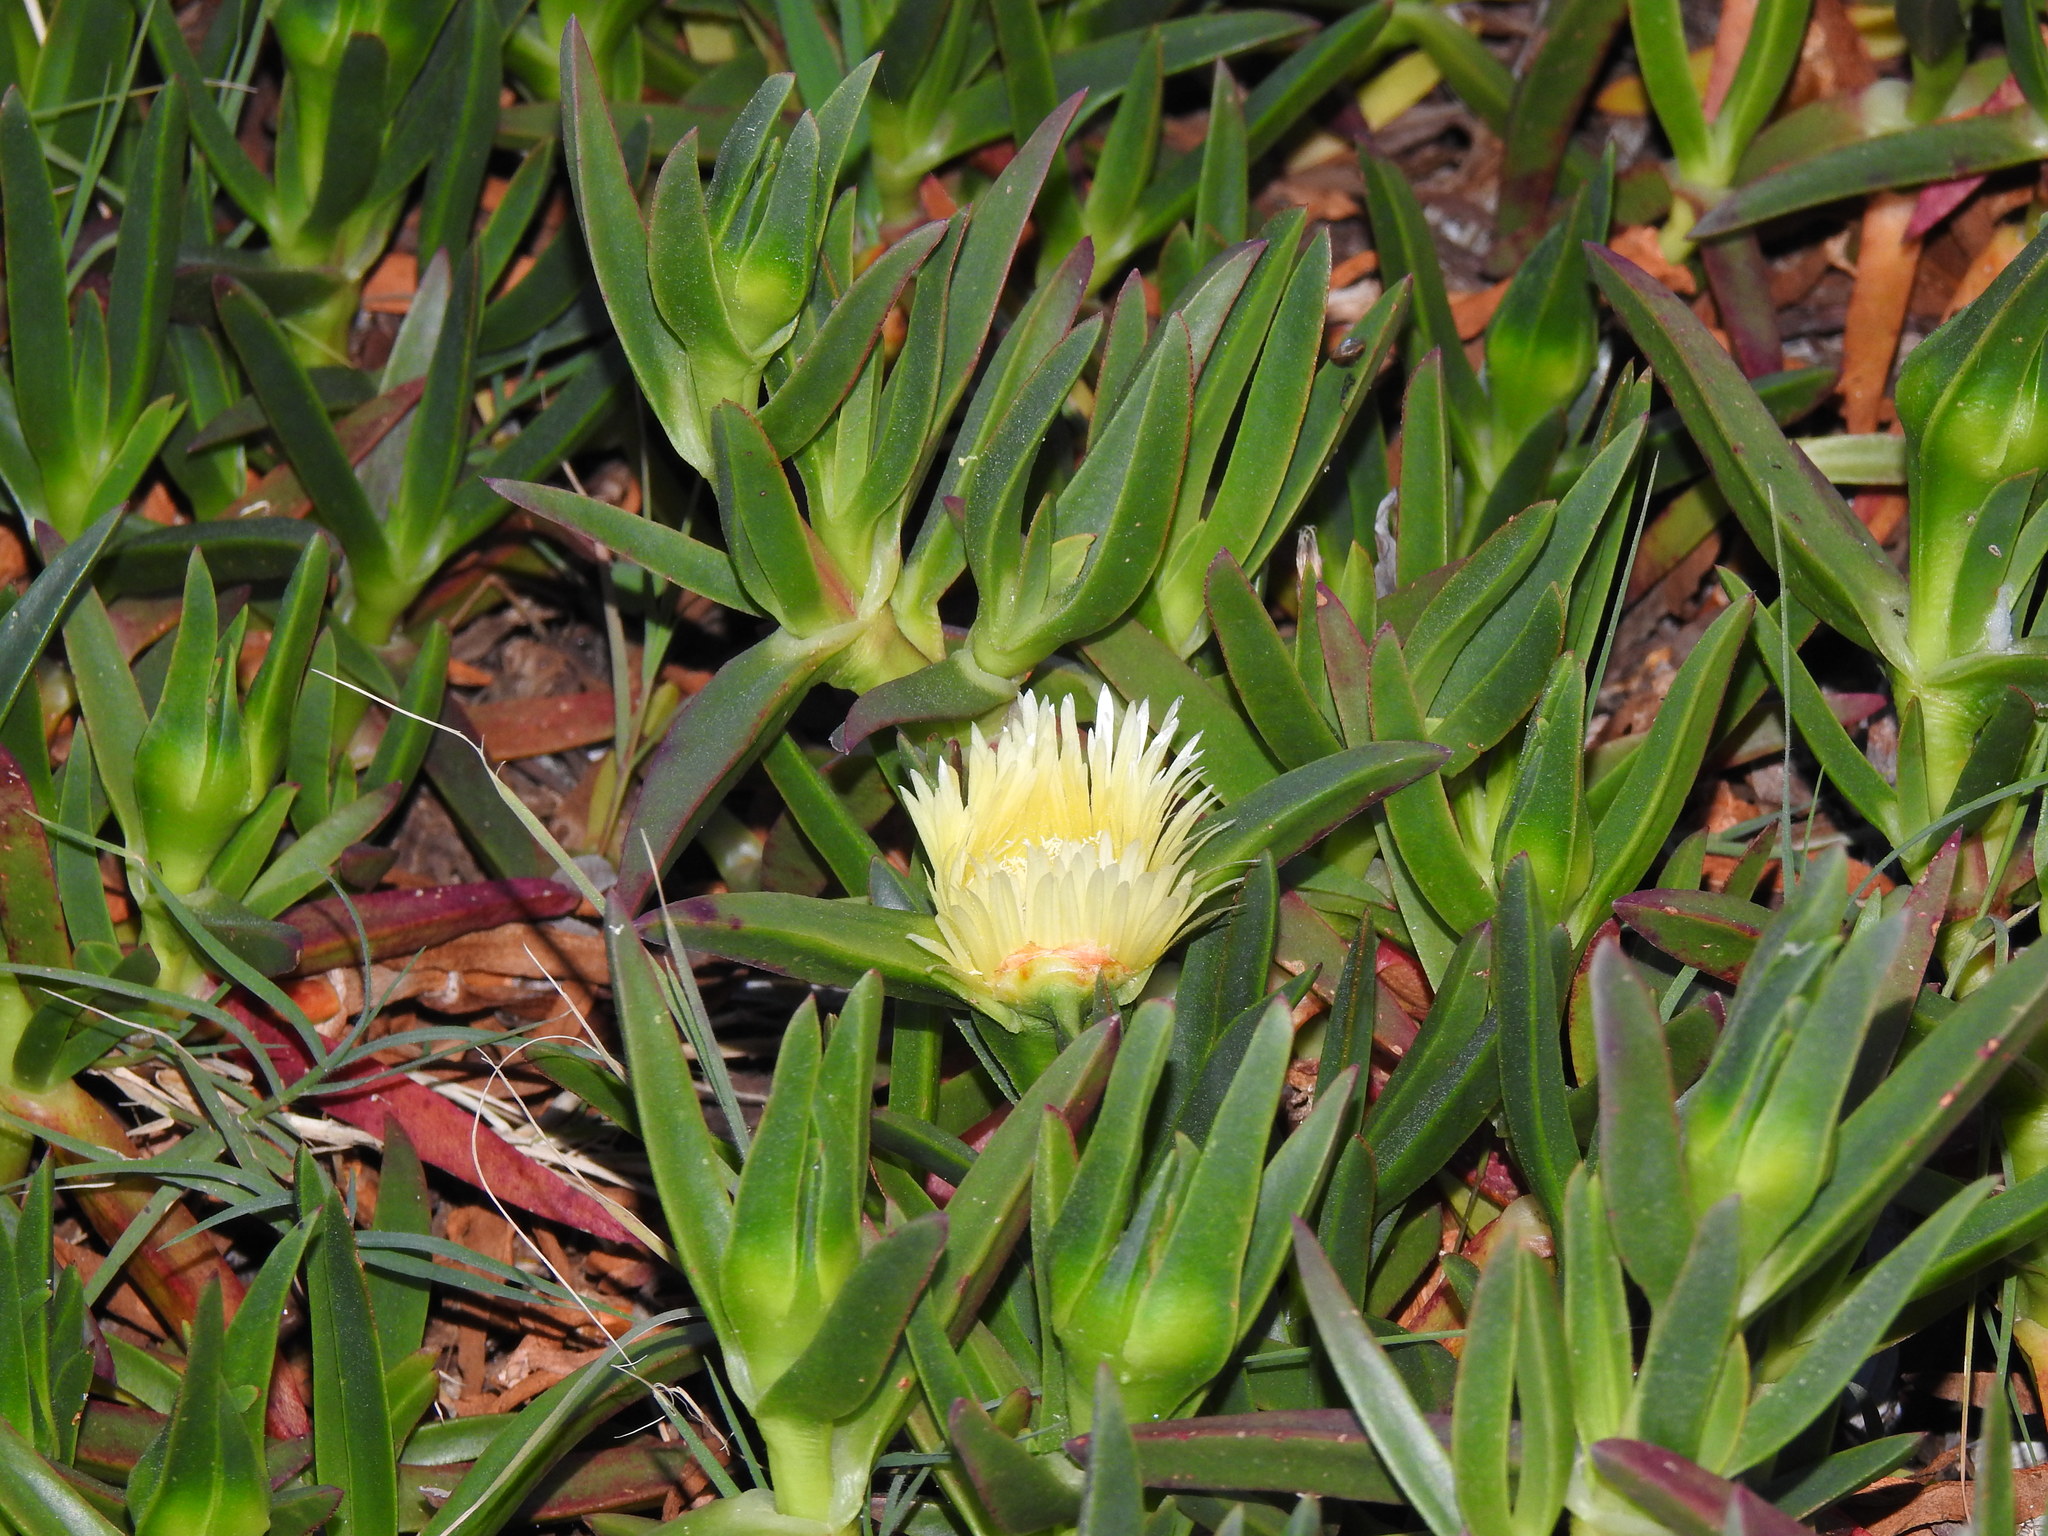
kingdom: Plantae
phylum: Tracheophyta
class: Magnoliopsida
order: Caryophyllales
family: Aizoaceae
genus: Carpobrotus
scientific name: Carpobrotus edulis
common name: Hottentot-fig
